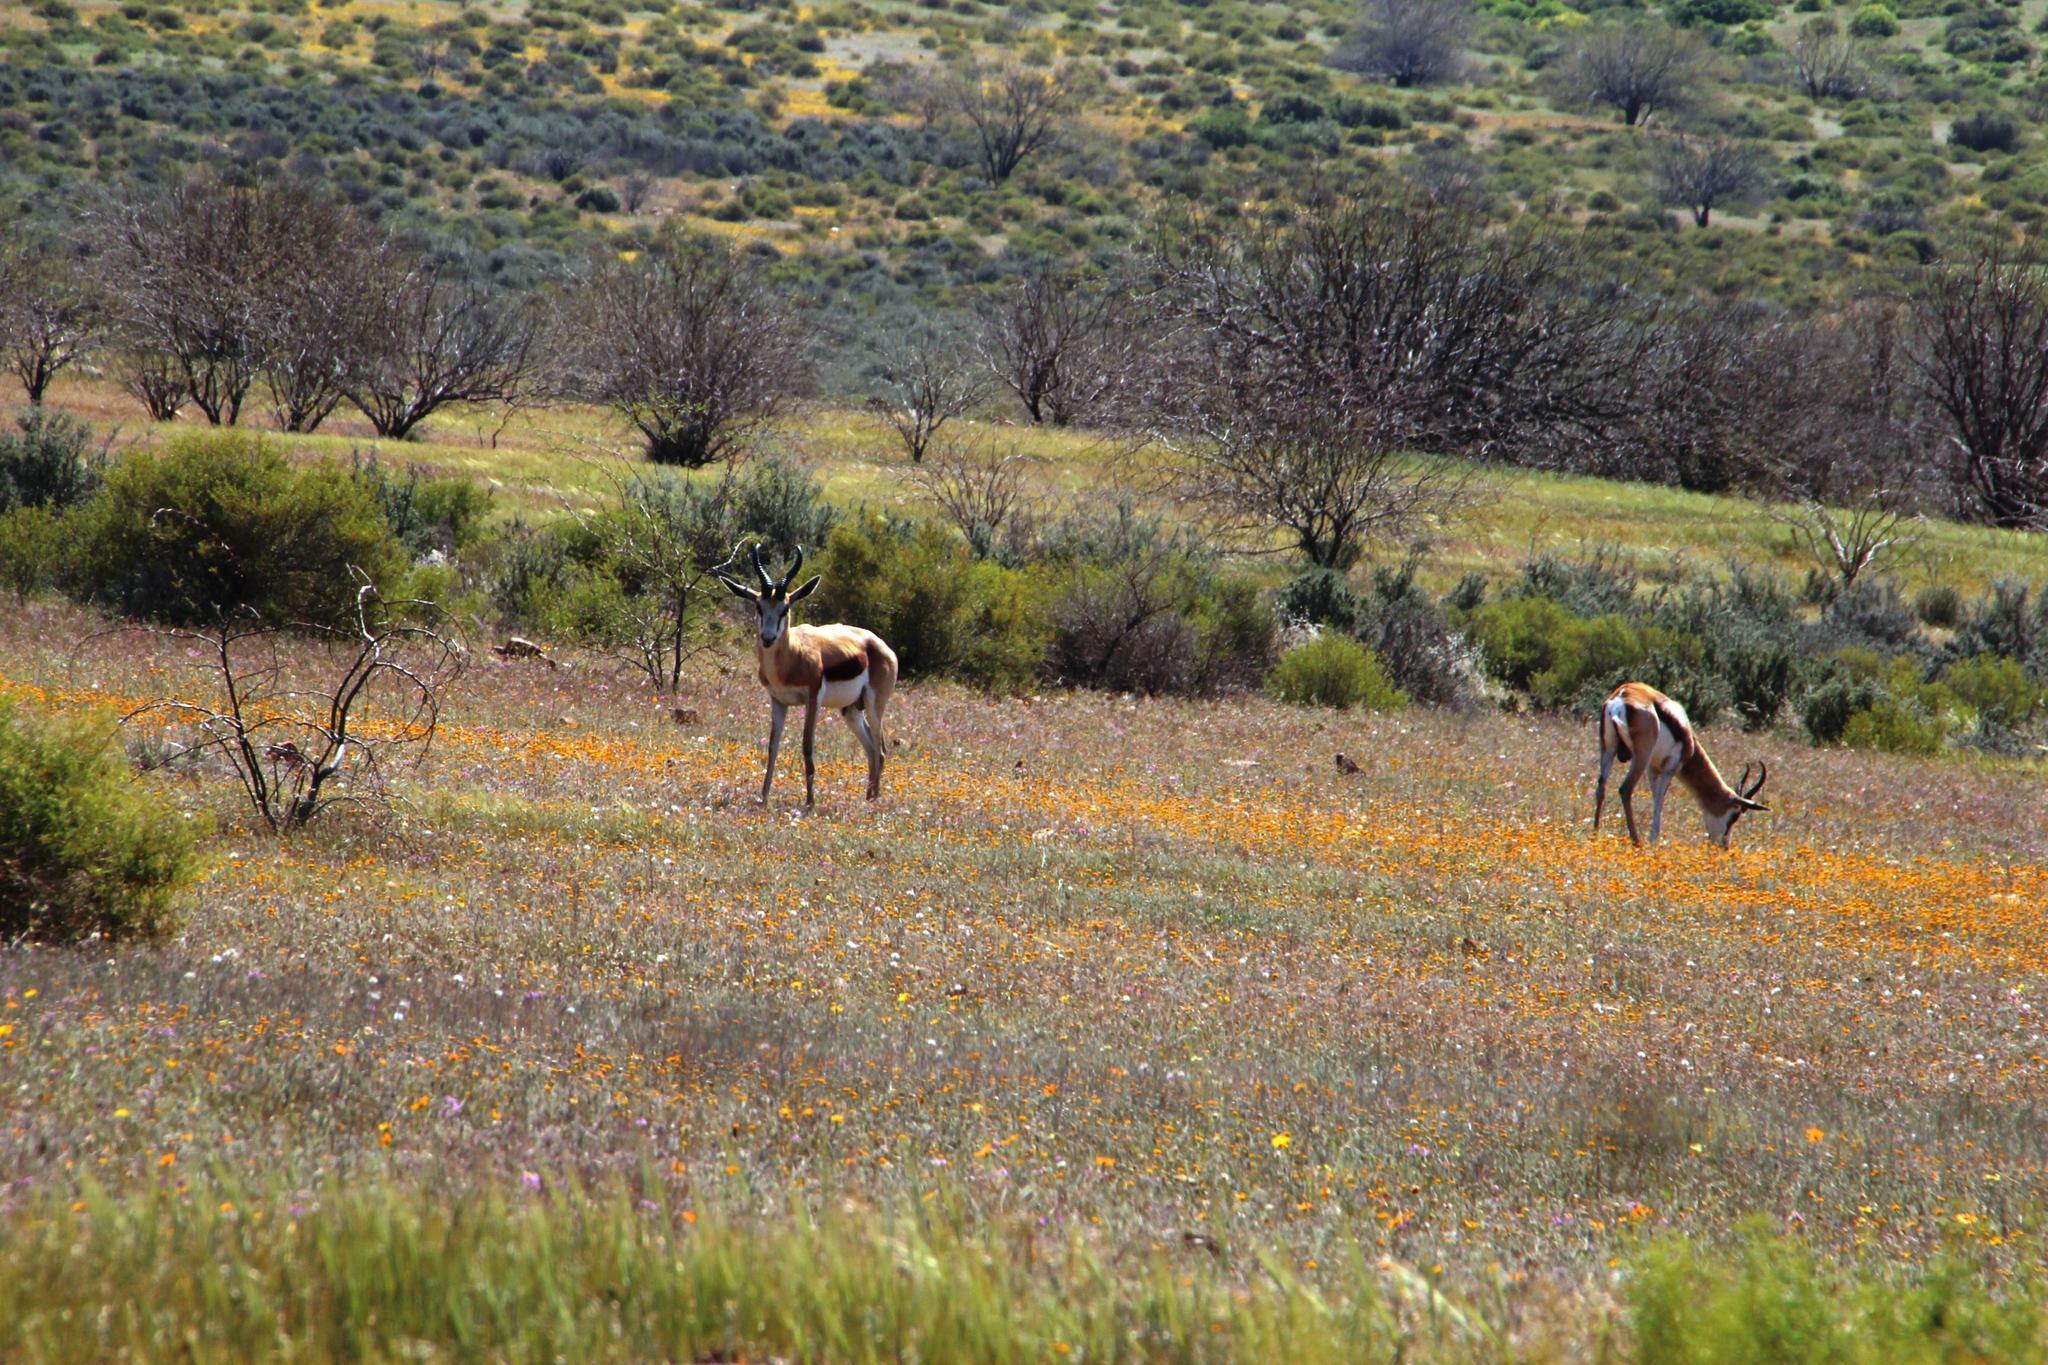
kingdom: Animalia
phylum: Chordata
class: Mammalia
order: Artiodactyla
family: Bovidae
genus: Antidorcas
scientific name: Antidorcas marsupialis
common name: Springbok
